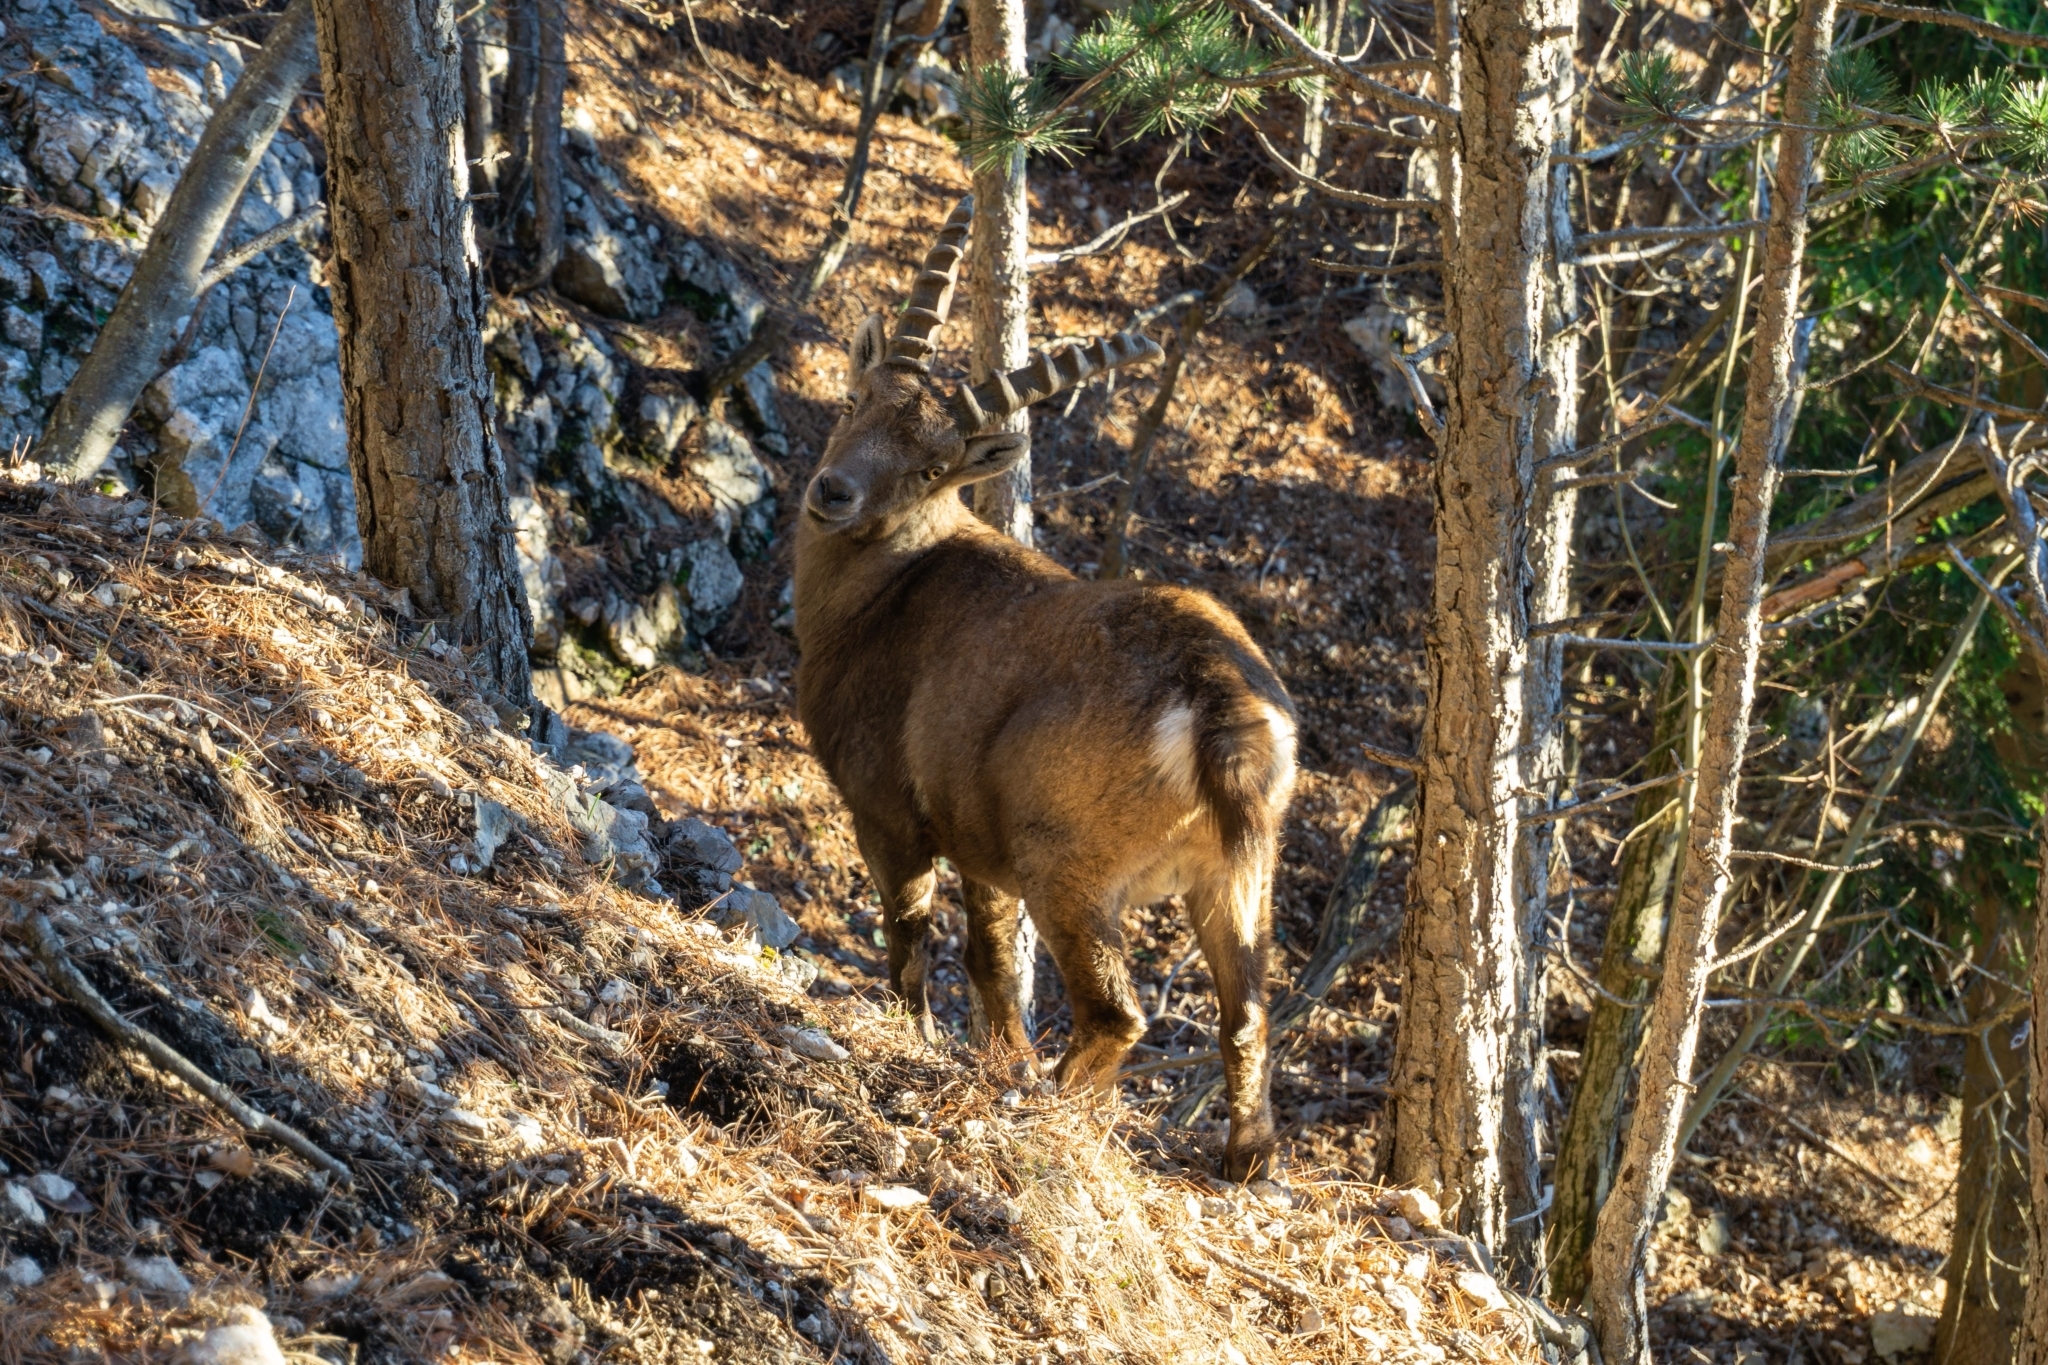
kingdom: Animalia
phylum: Chordata
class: Mammalia
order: Artiodactyla
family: Bovidae
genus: Capra
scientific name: Capra ibex
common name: Alpine ibex
